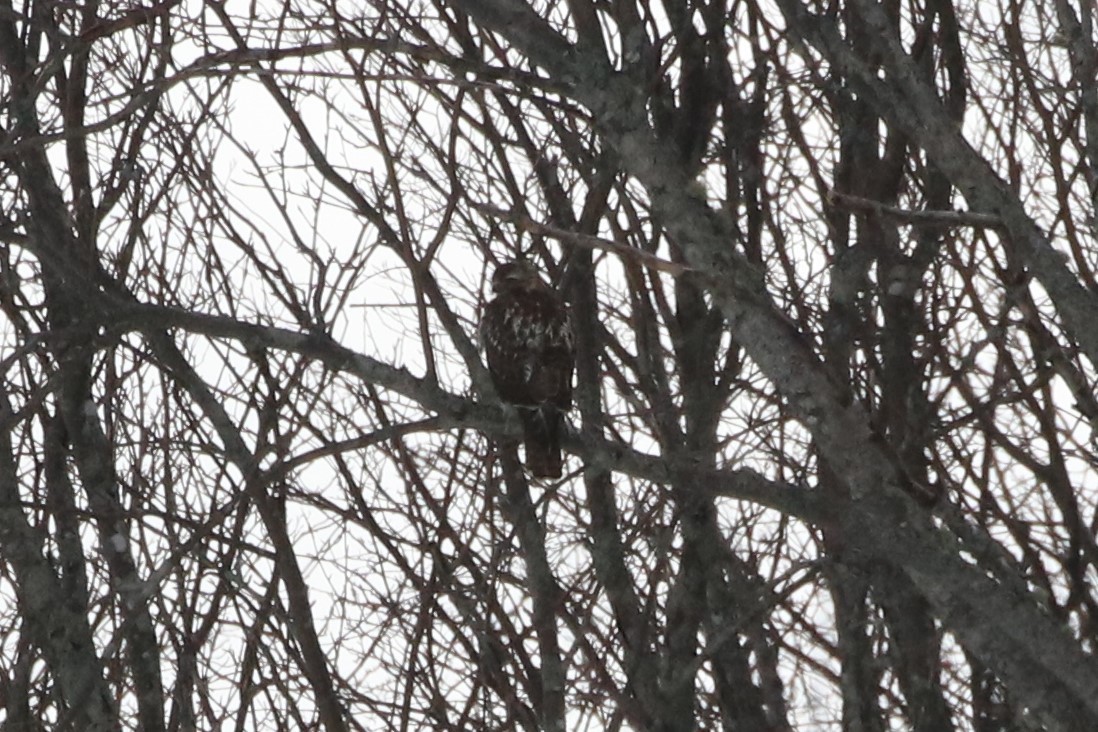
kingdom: Animalia
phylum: Chordata
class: Aves
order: Accipitriformes
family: Accipitridae
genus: Buteo
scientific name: Buteo jamaicensis
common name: Red-tailed hawk
